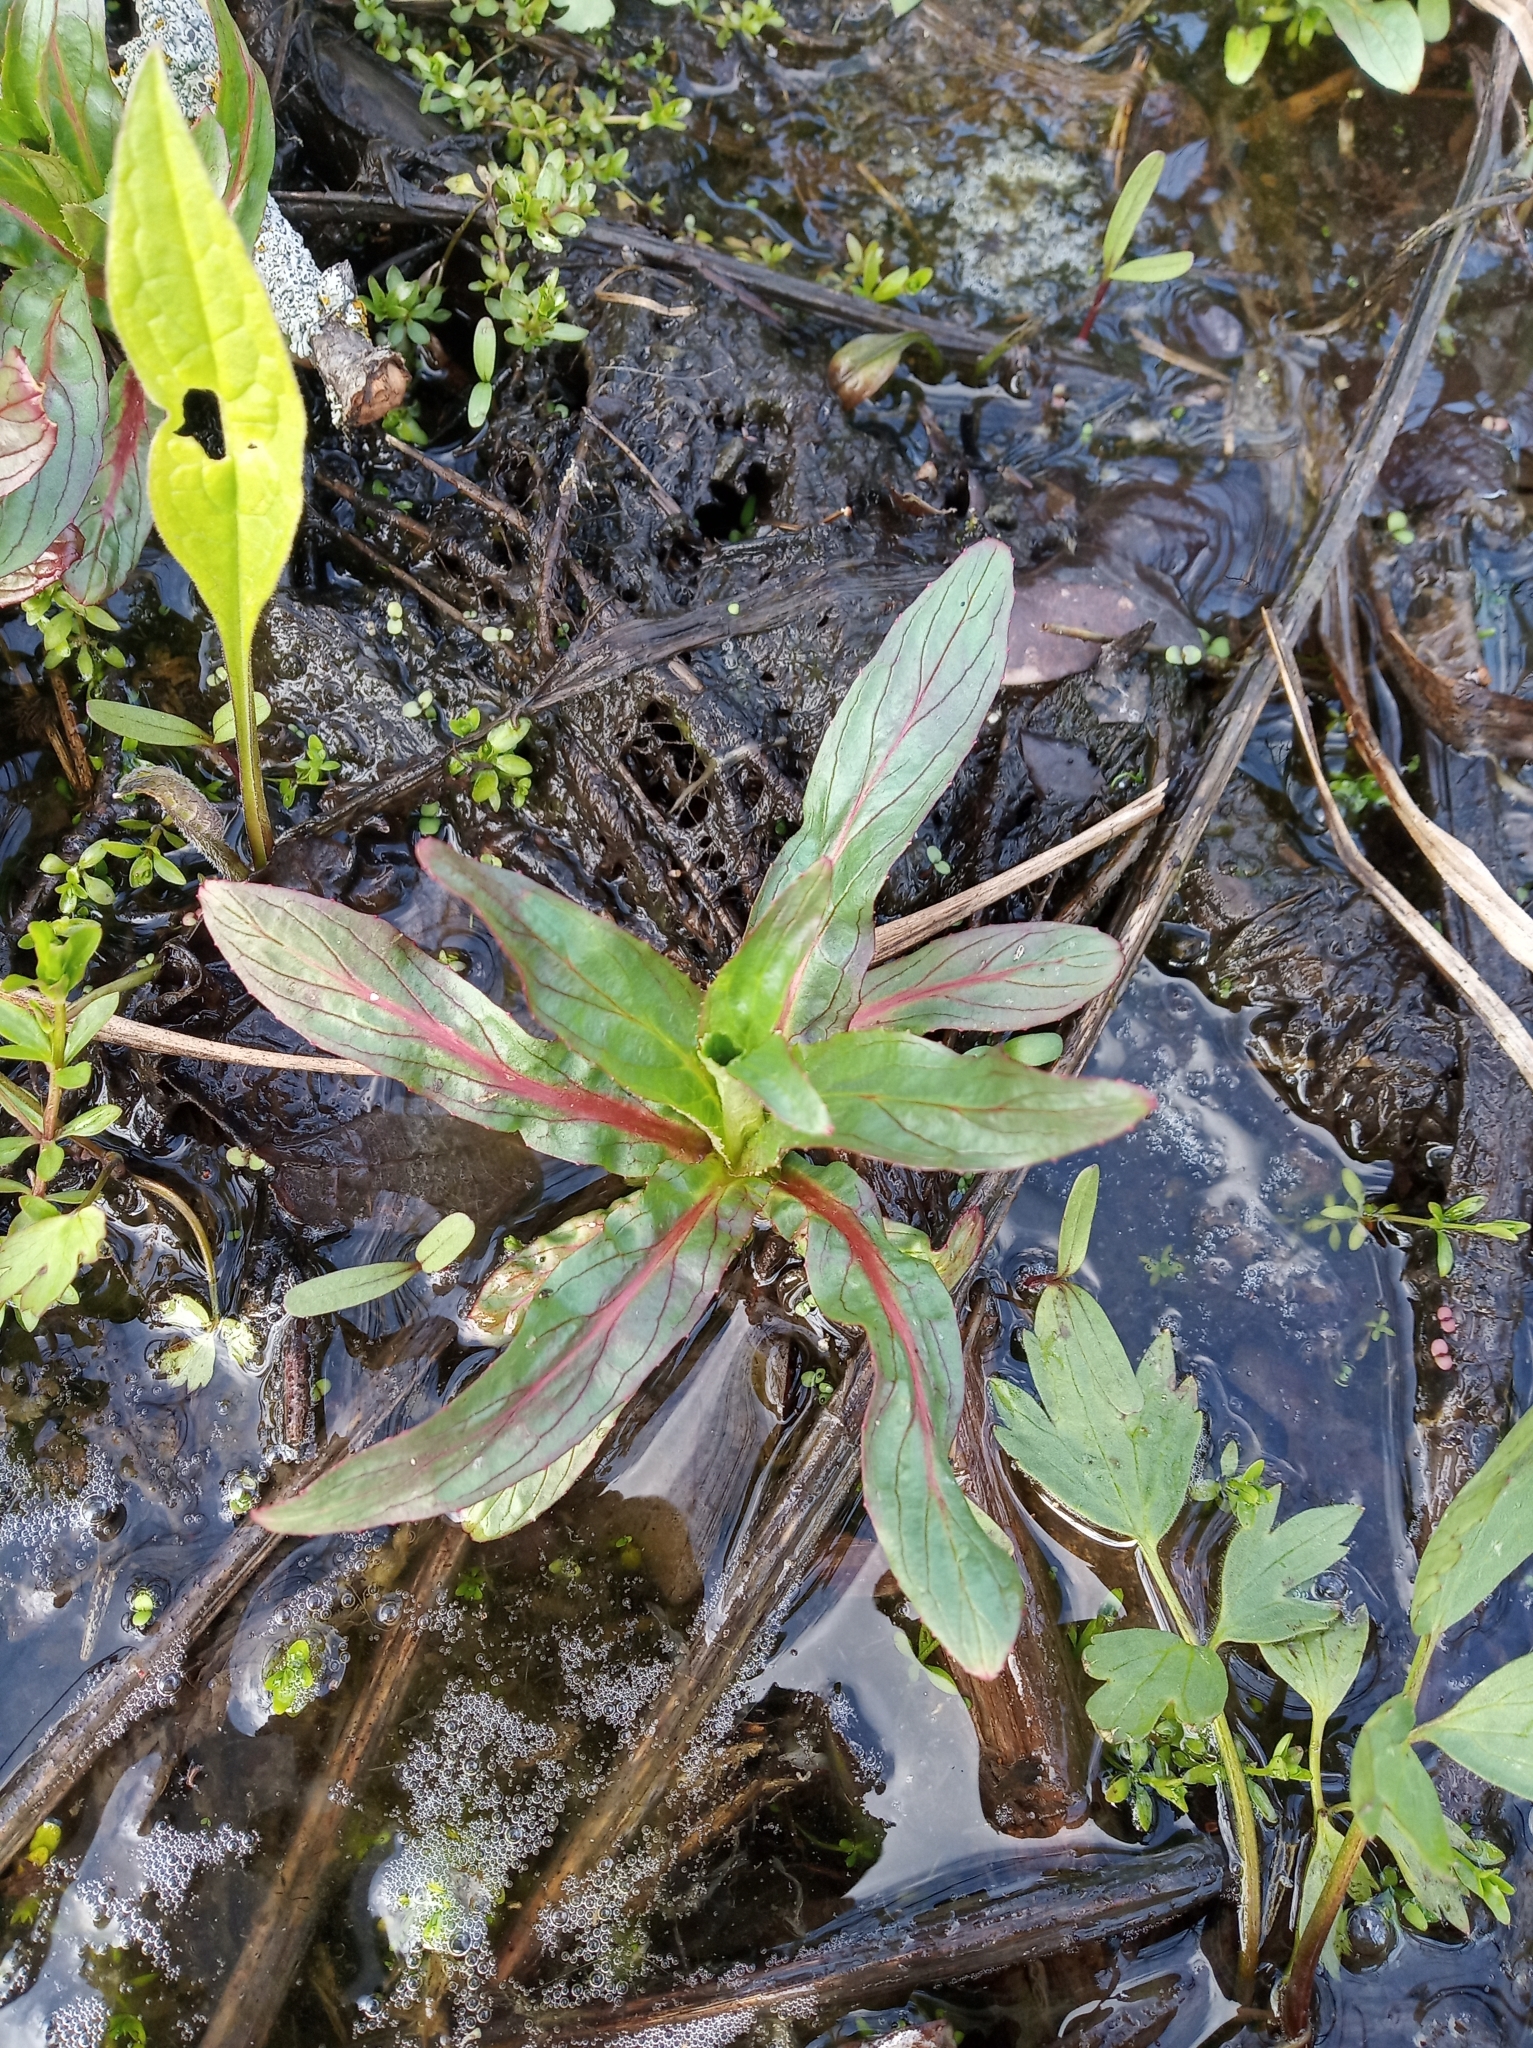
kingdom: Plantae
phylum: Tracheophyta
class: Magnoliopsida
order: Myrtales
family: Onagraceae
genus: Epilobium
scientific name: Epilobium hirsutum
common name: Great willowherb
